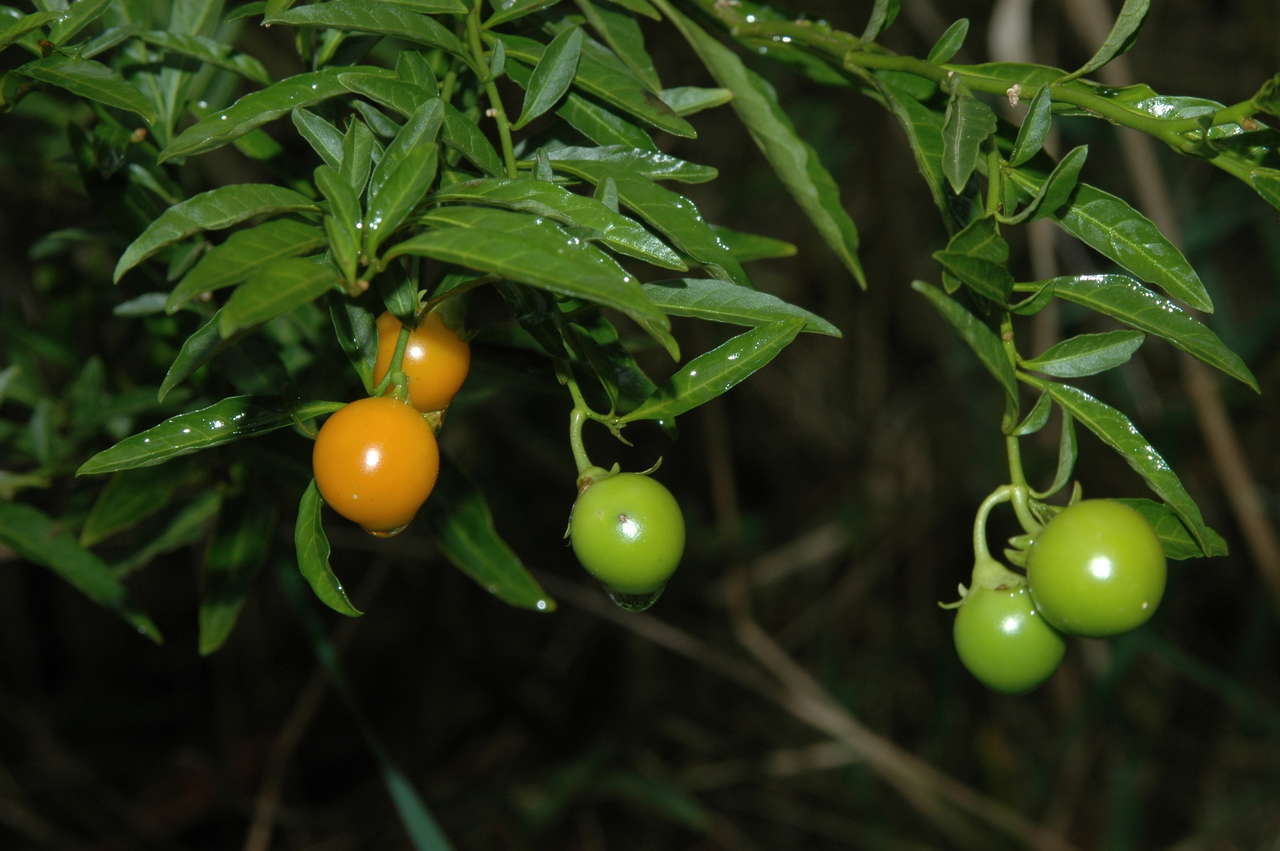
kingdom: Plantae
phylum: Tracheophyta
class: Magnoliopsida
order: Solanales
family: Solanaceae
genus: Solanum
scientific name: Solanum pseudocapsicum
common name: Jerusalem cherry
